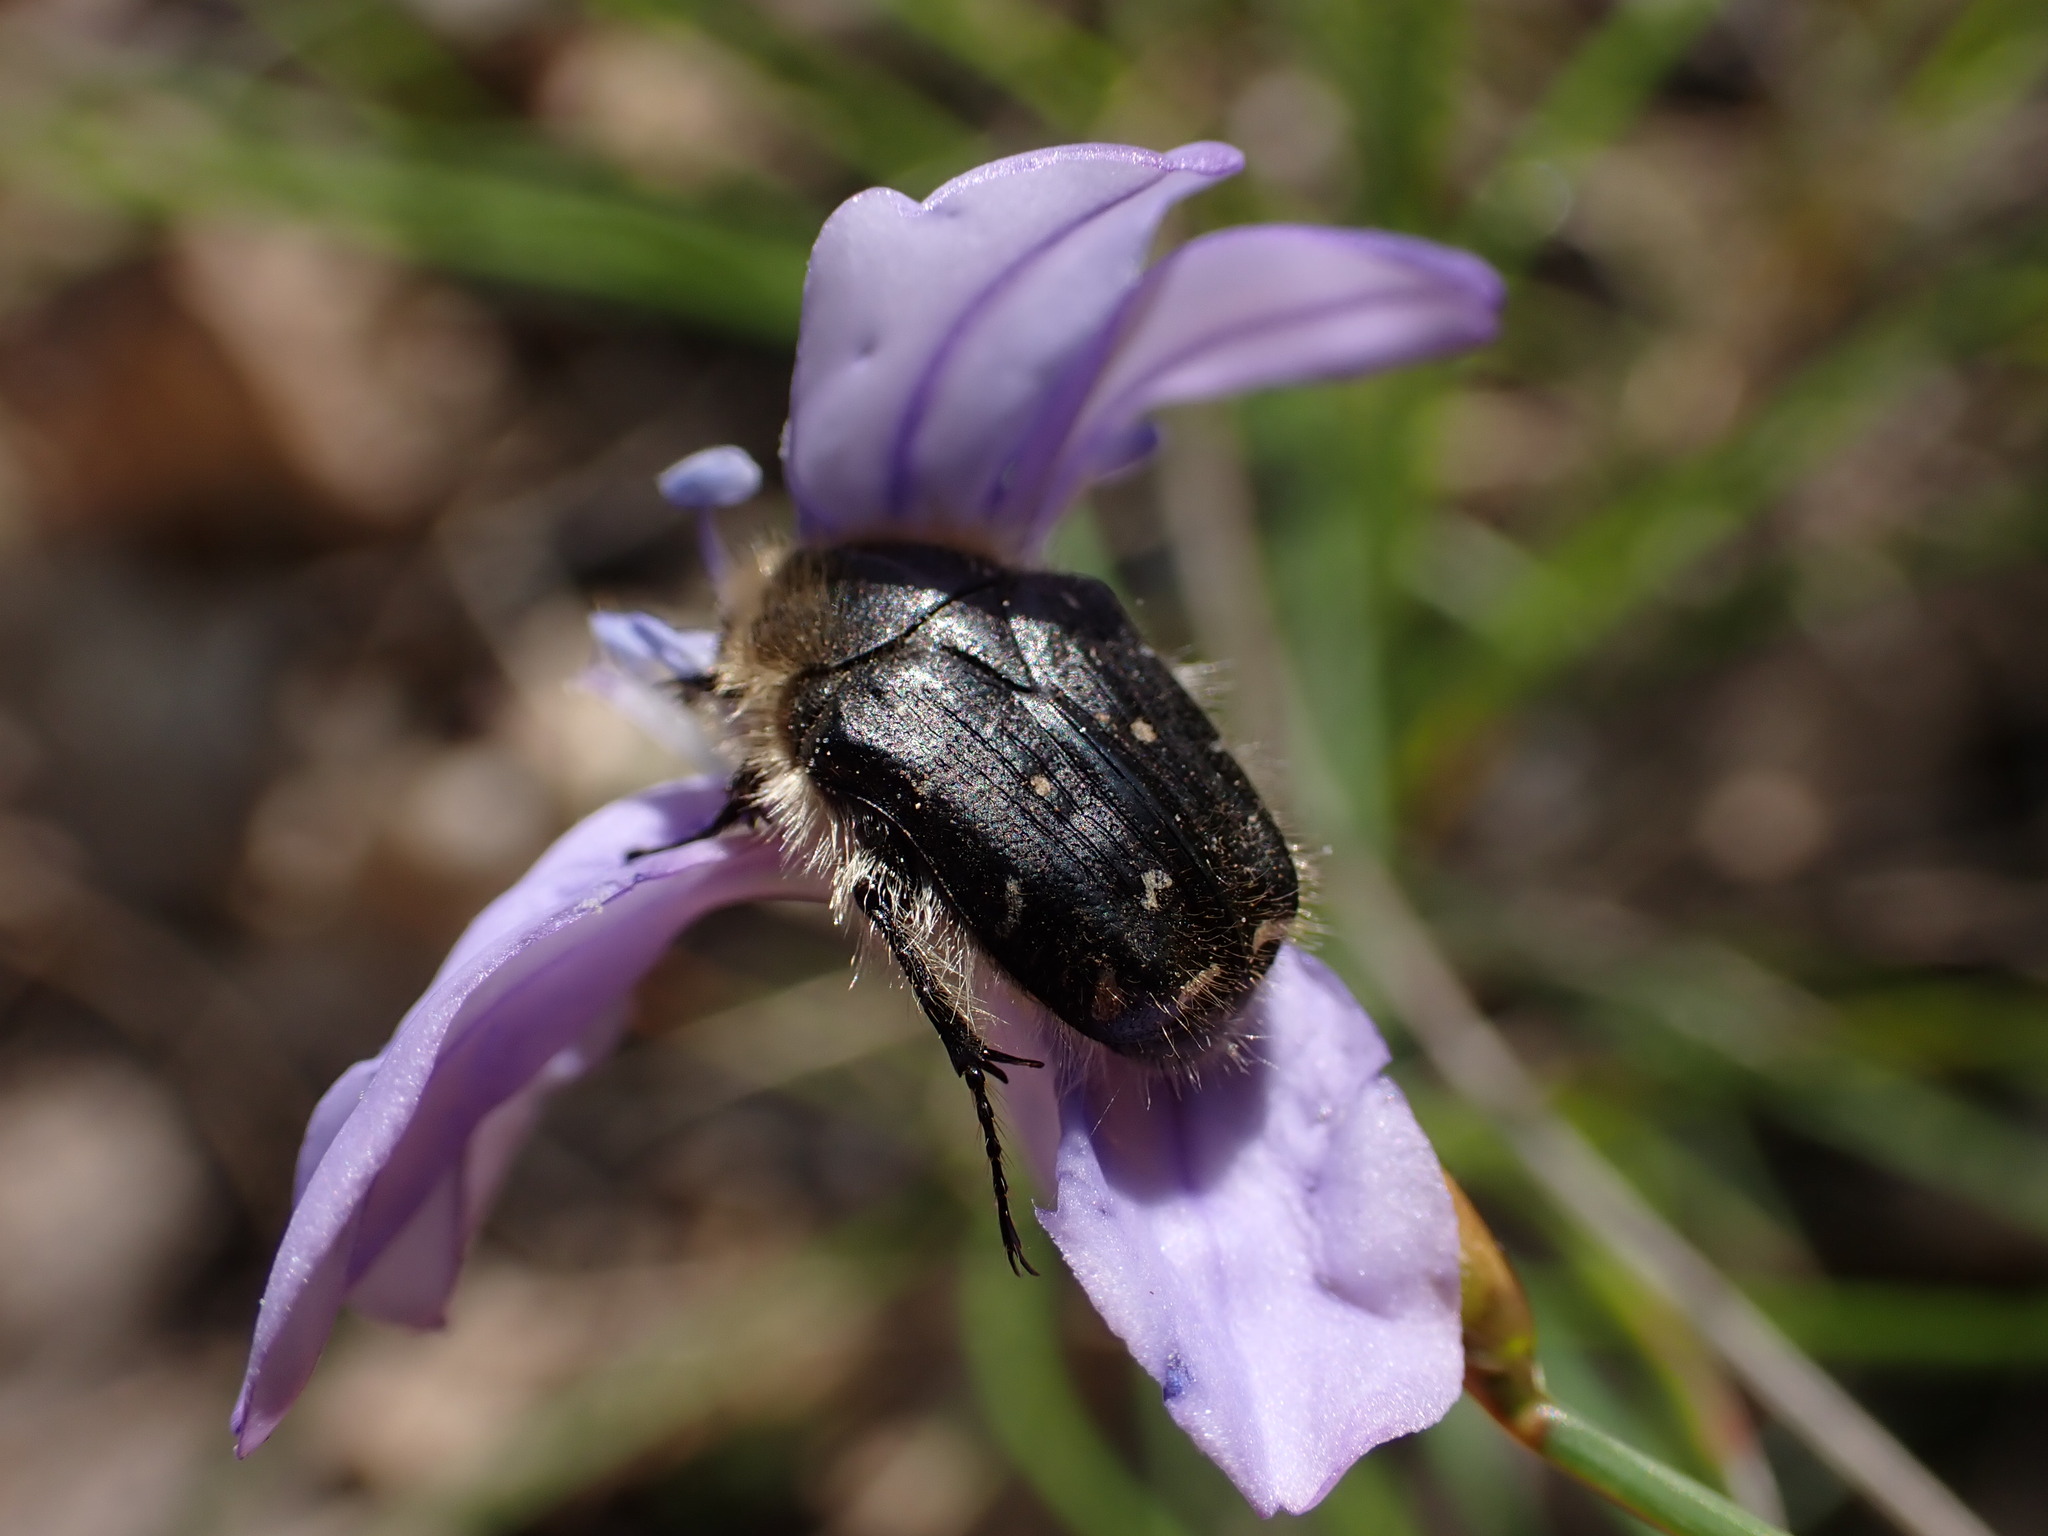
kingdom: Animalia
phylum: Arthropoda
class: Insecta
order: Coleoptera
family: Scarabaeidae
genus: Tropinota
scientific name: Tropinota hirta
